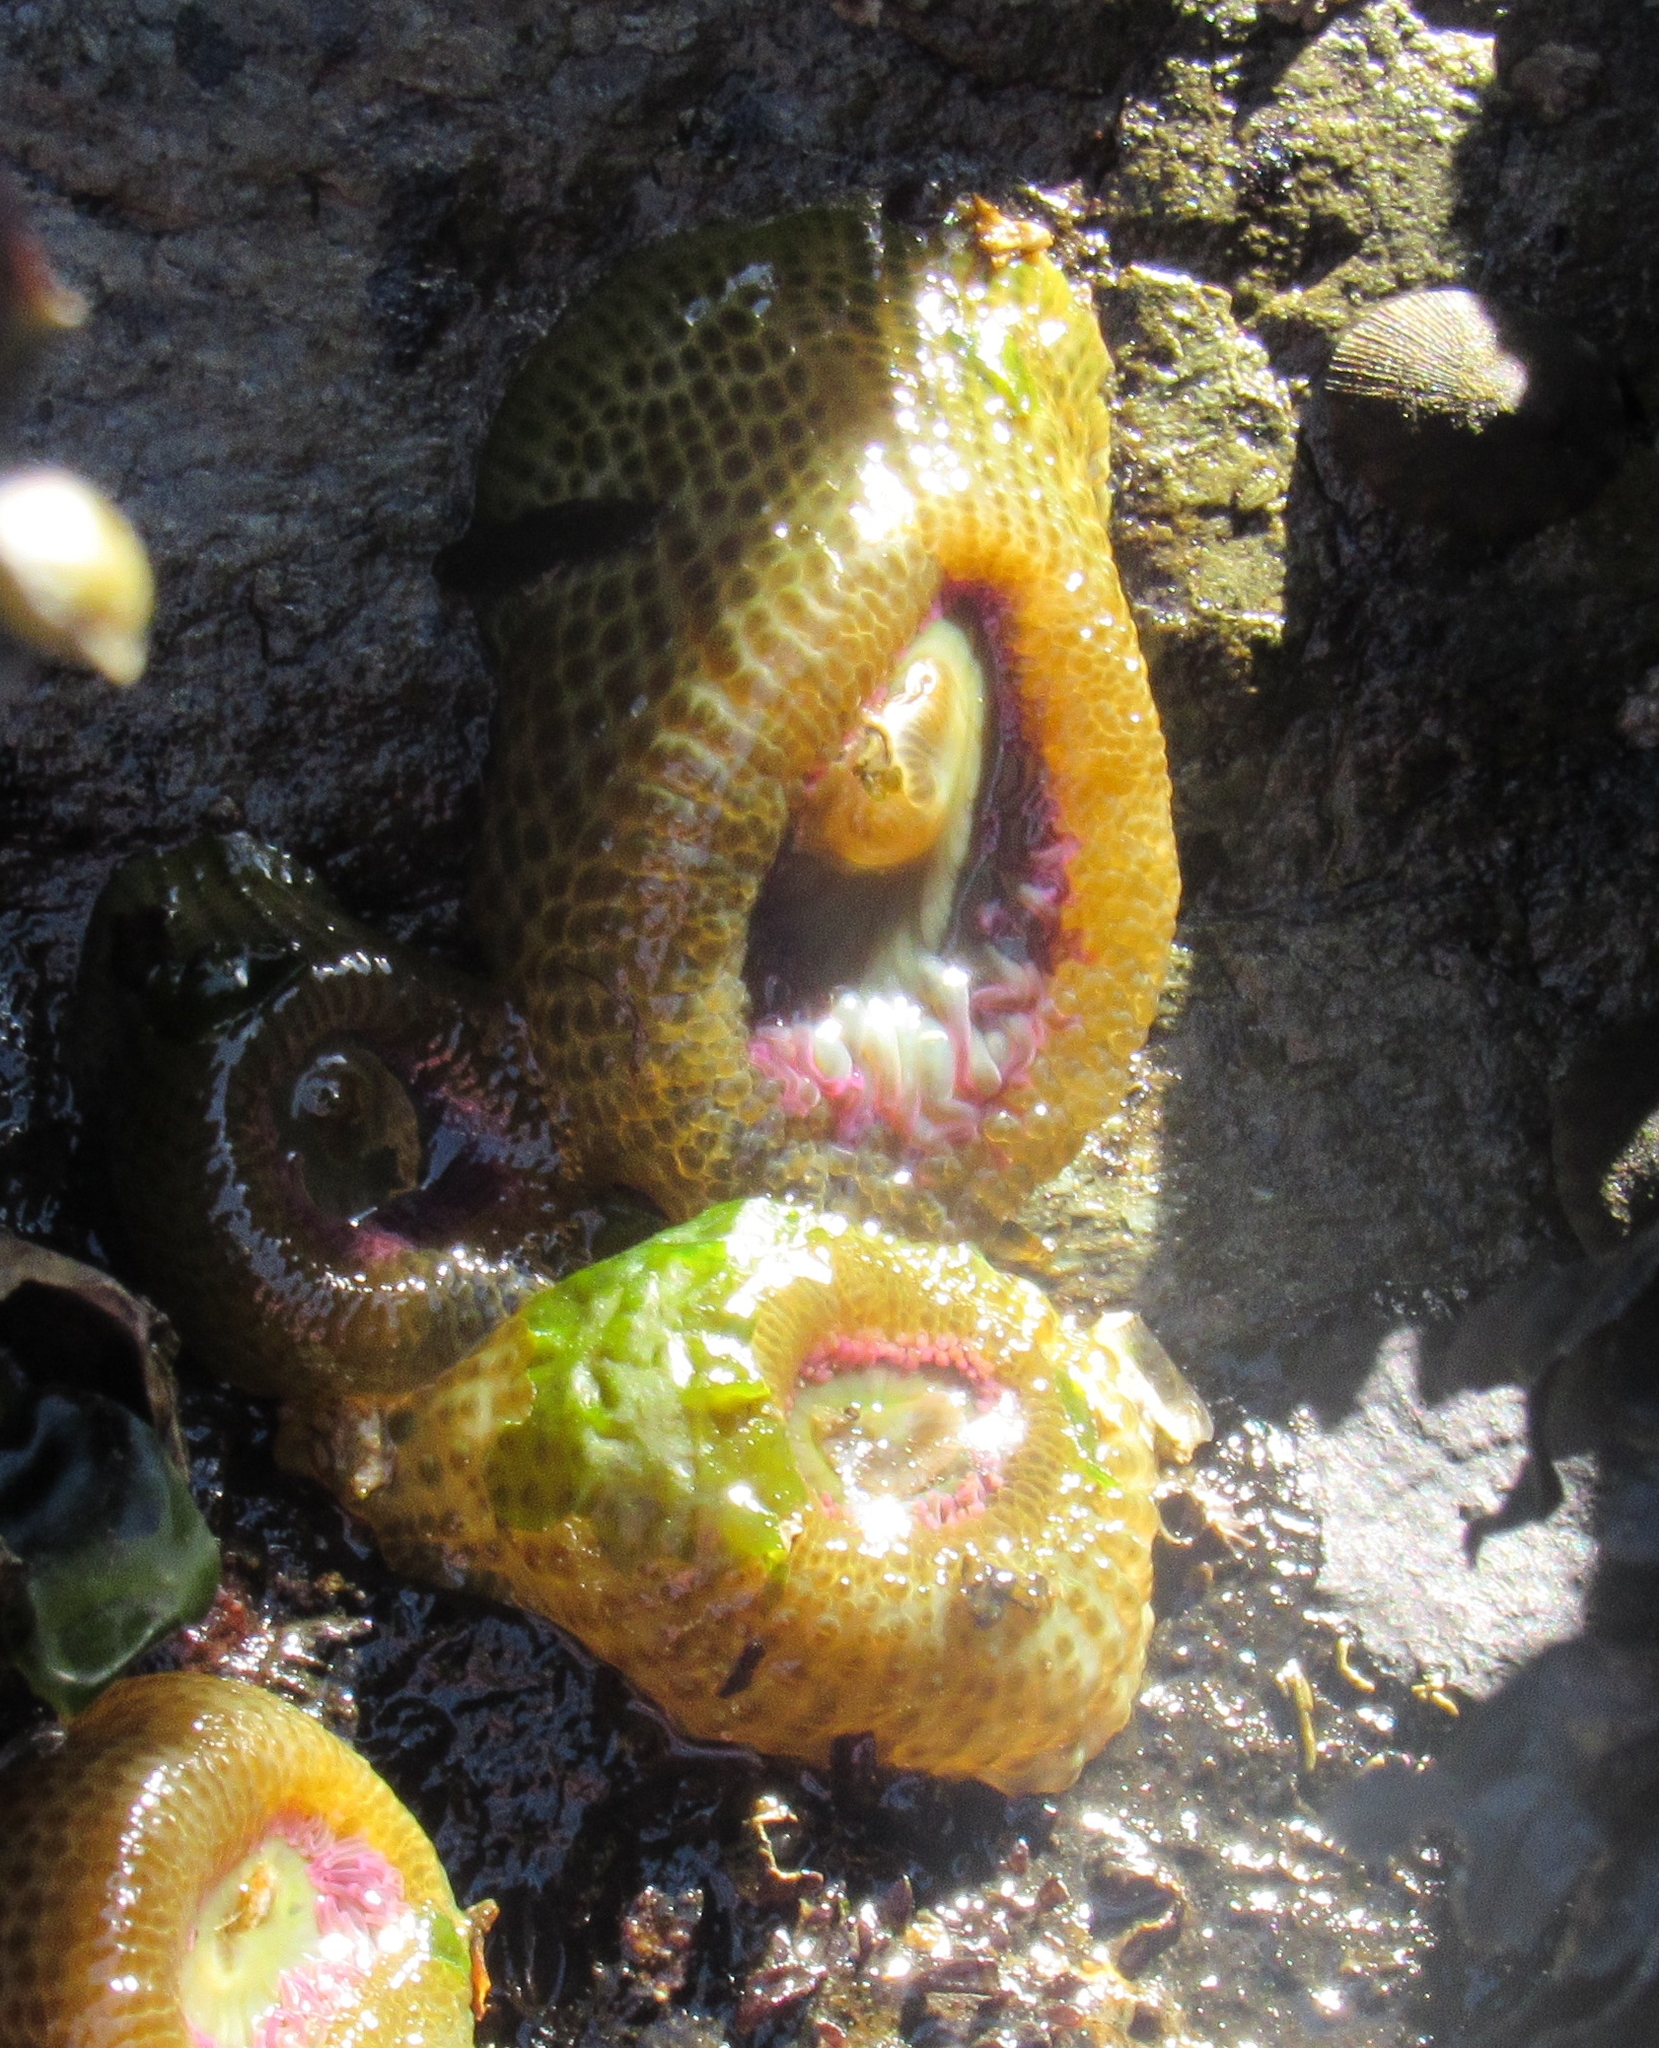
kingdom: Animalia
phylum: Cnidaria
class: Anthozoa
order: Actiniaria
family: Actiniidae
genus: Anthopleura
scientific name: Anthopleura elegantissima
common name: Clonal anemone
